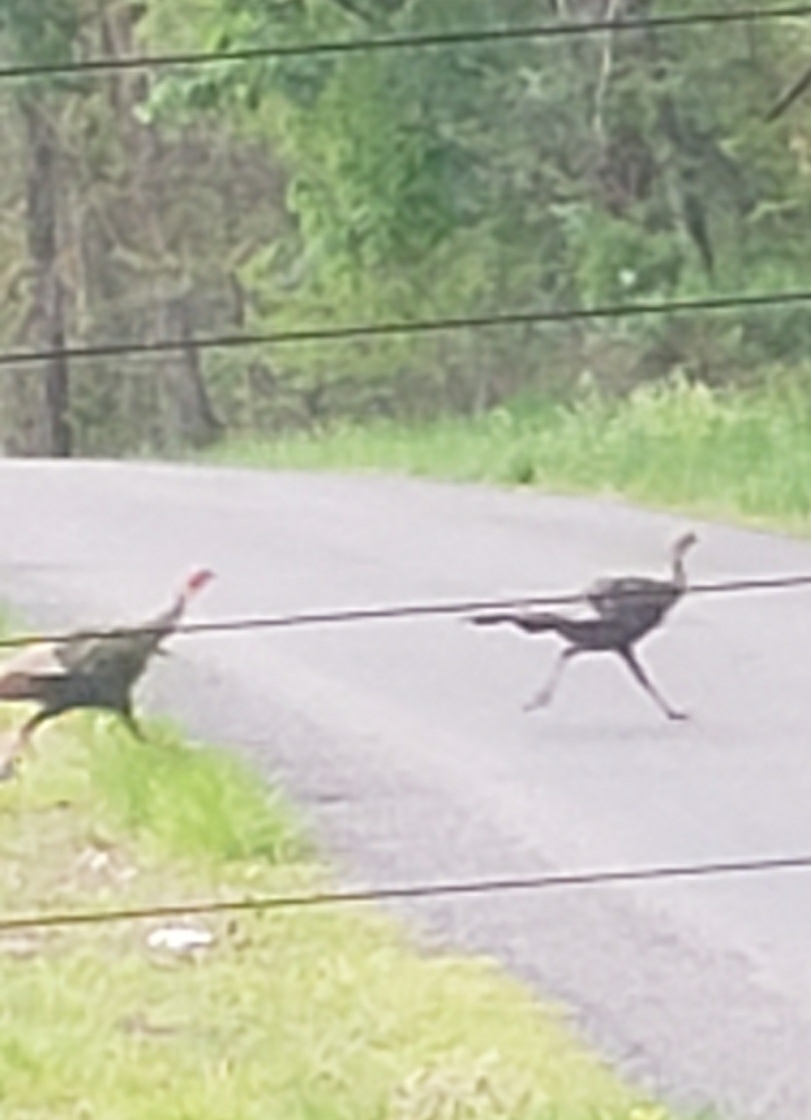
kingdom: Animalia
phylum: Chordata
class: Aves
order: Galliformes
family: Phasianidae
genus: Meleagris
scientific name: Meleagris gallopavo
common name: Wild turkey
